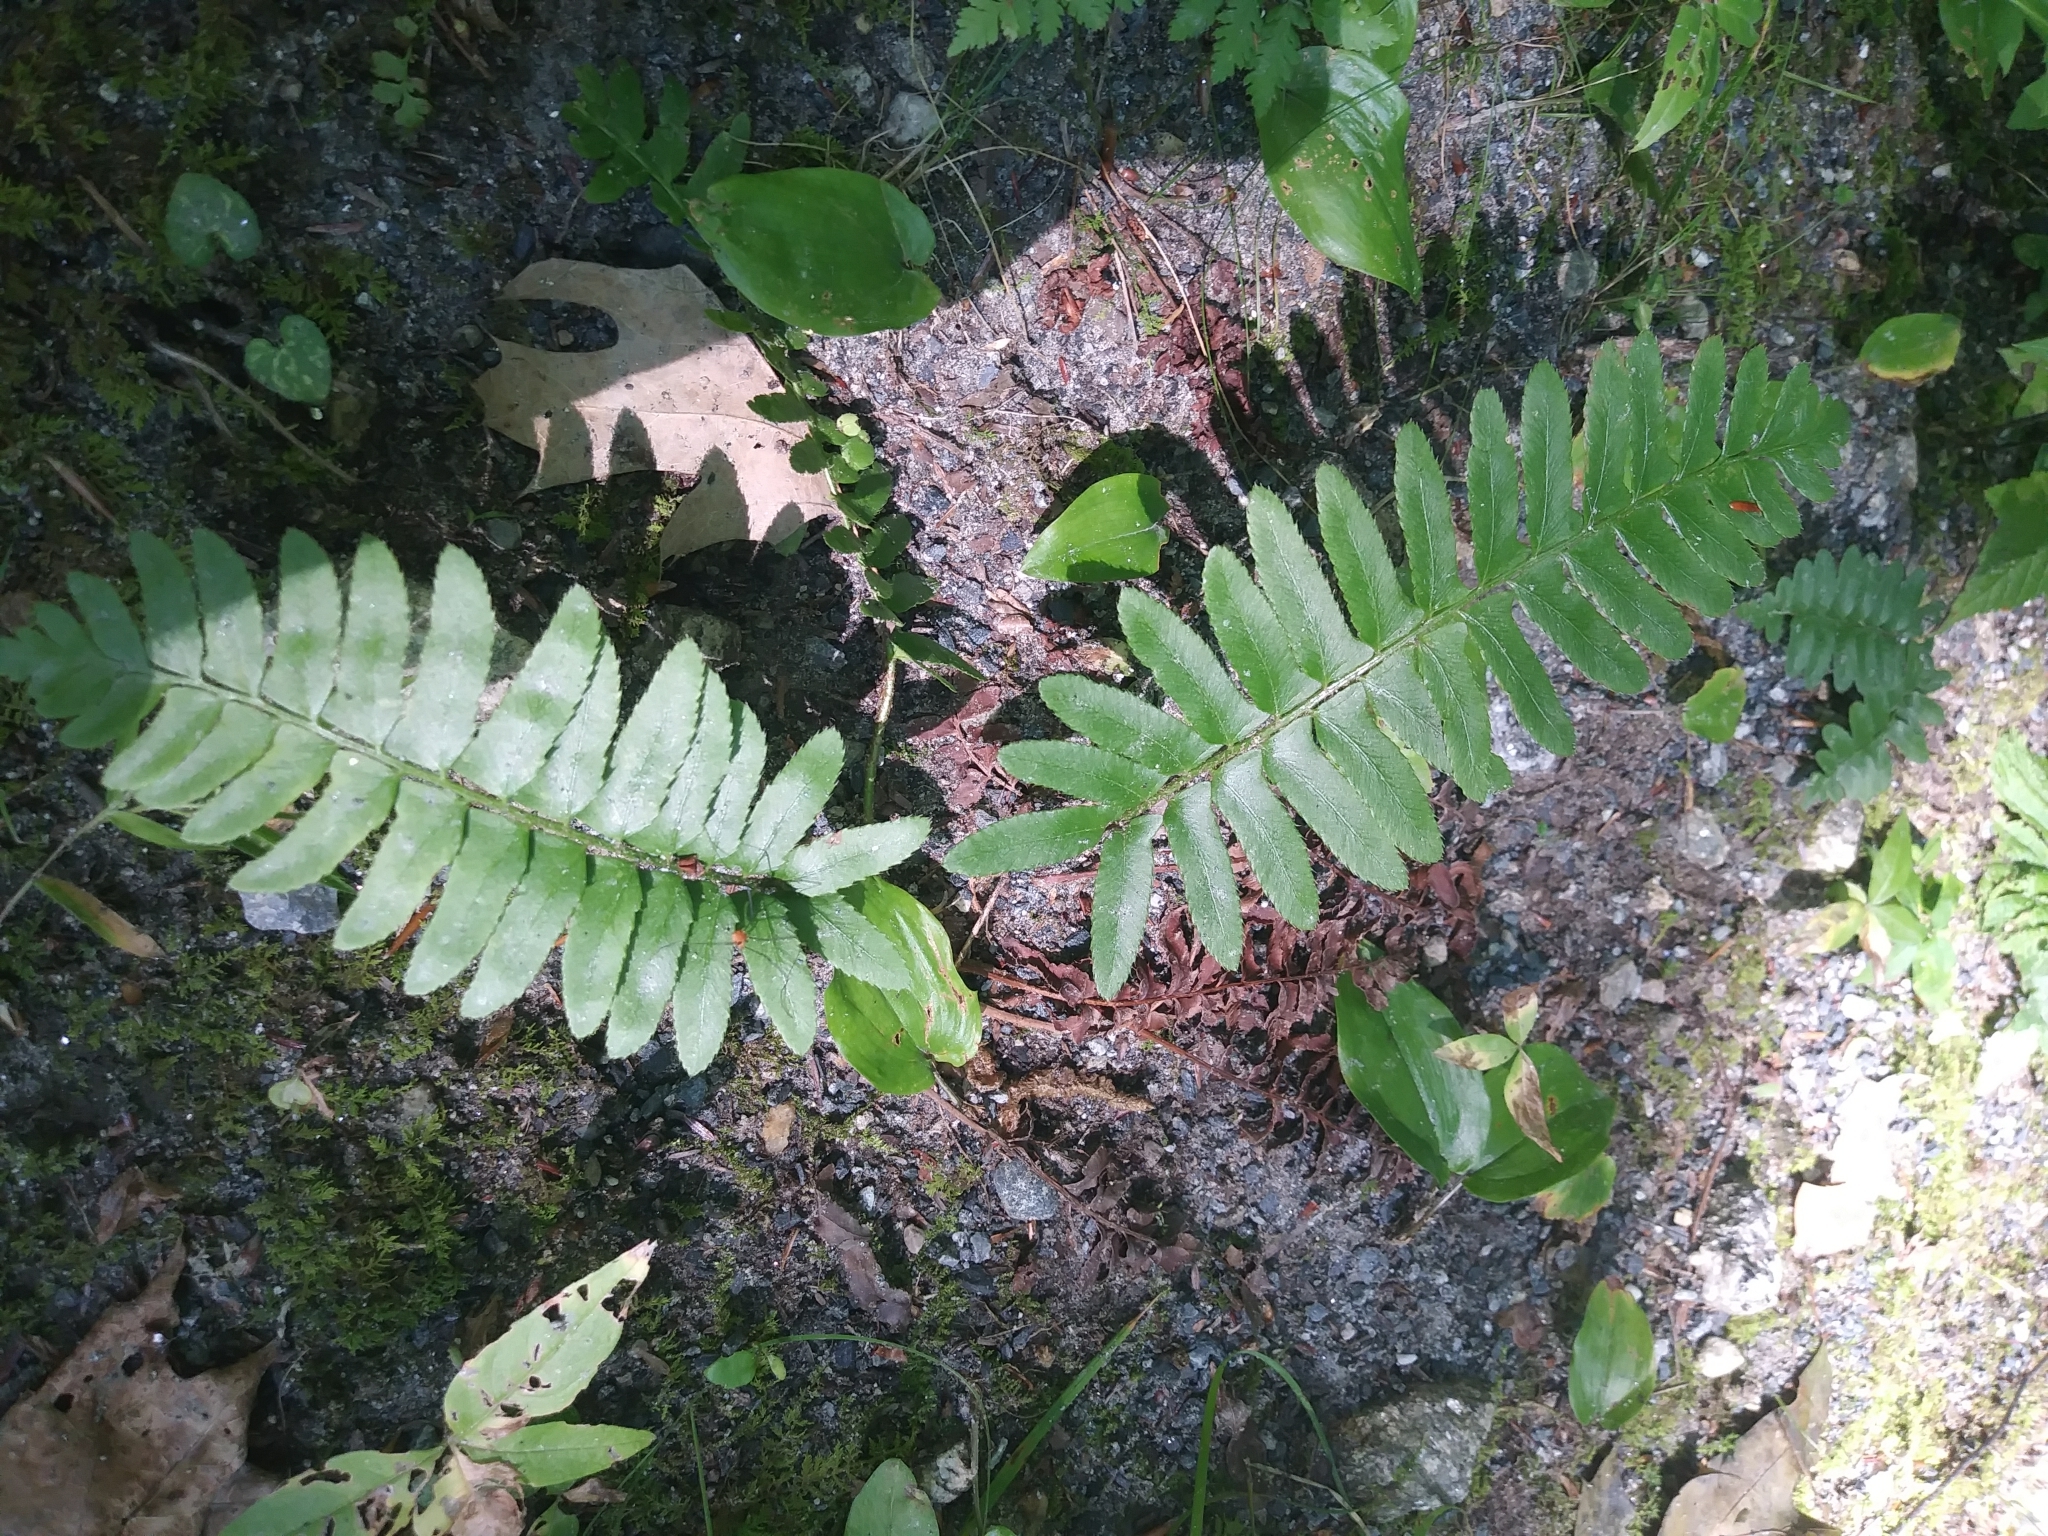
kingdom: Plantae
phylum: Tracheophyta
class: Polypodiopsida
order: Polypodiales
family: Dryopteridaceae
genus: Polystichum
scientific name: Polystichum acrostichoides
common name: Christmas fern
